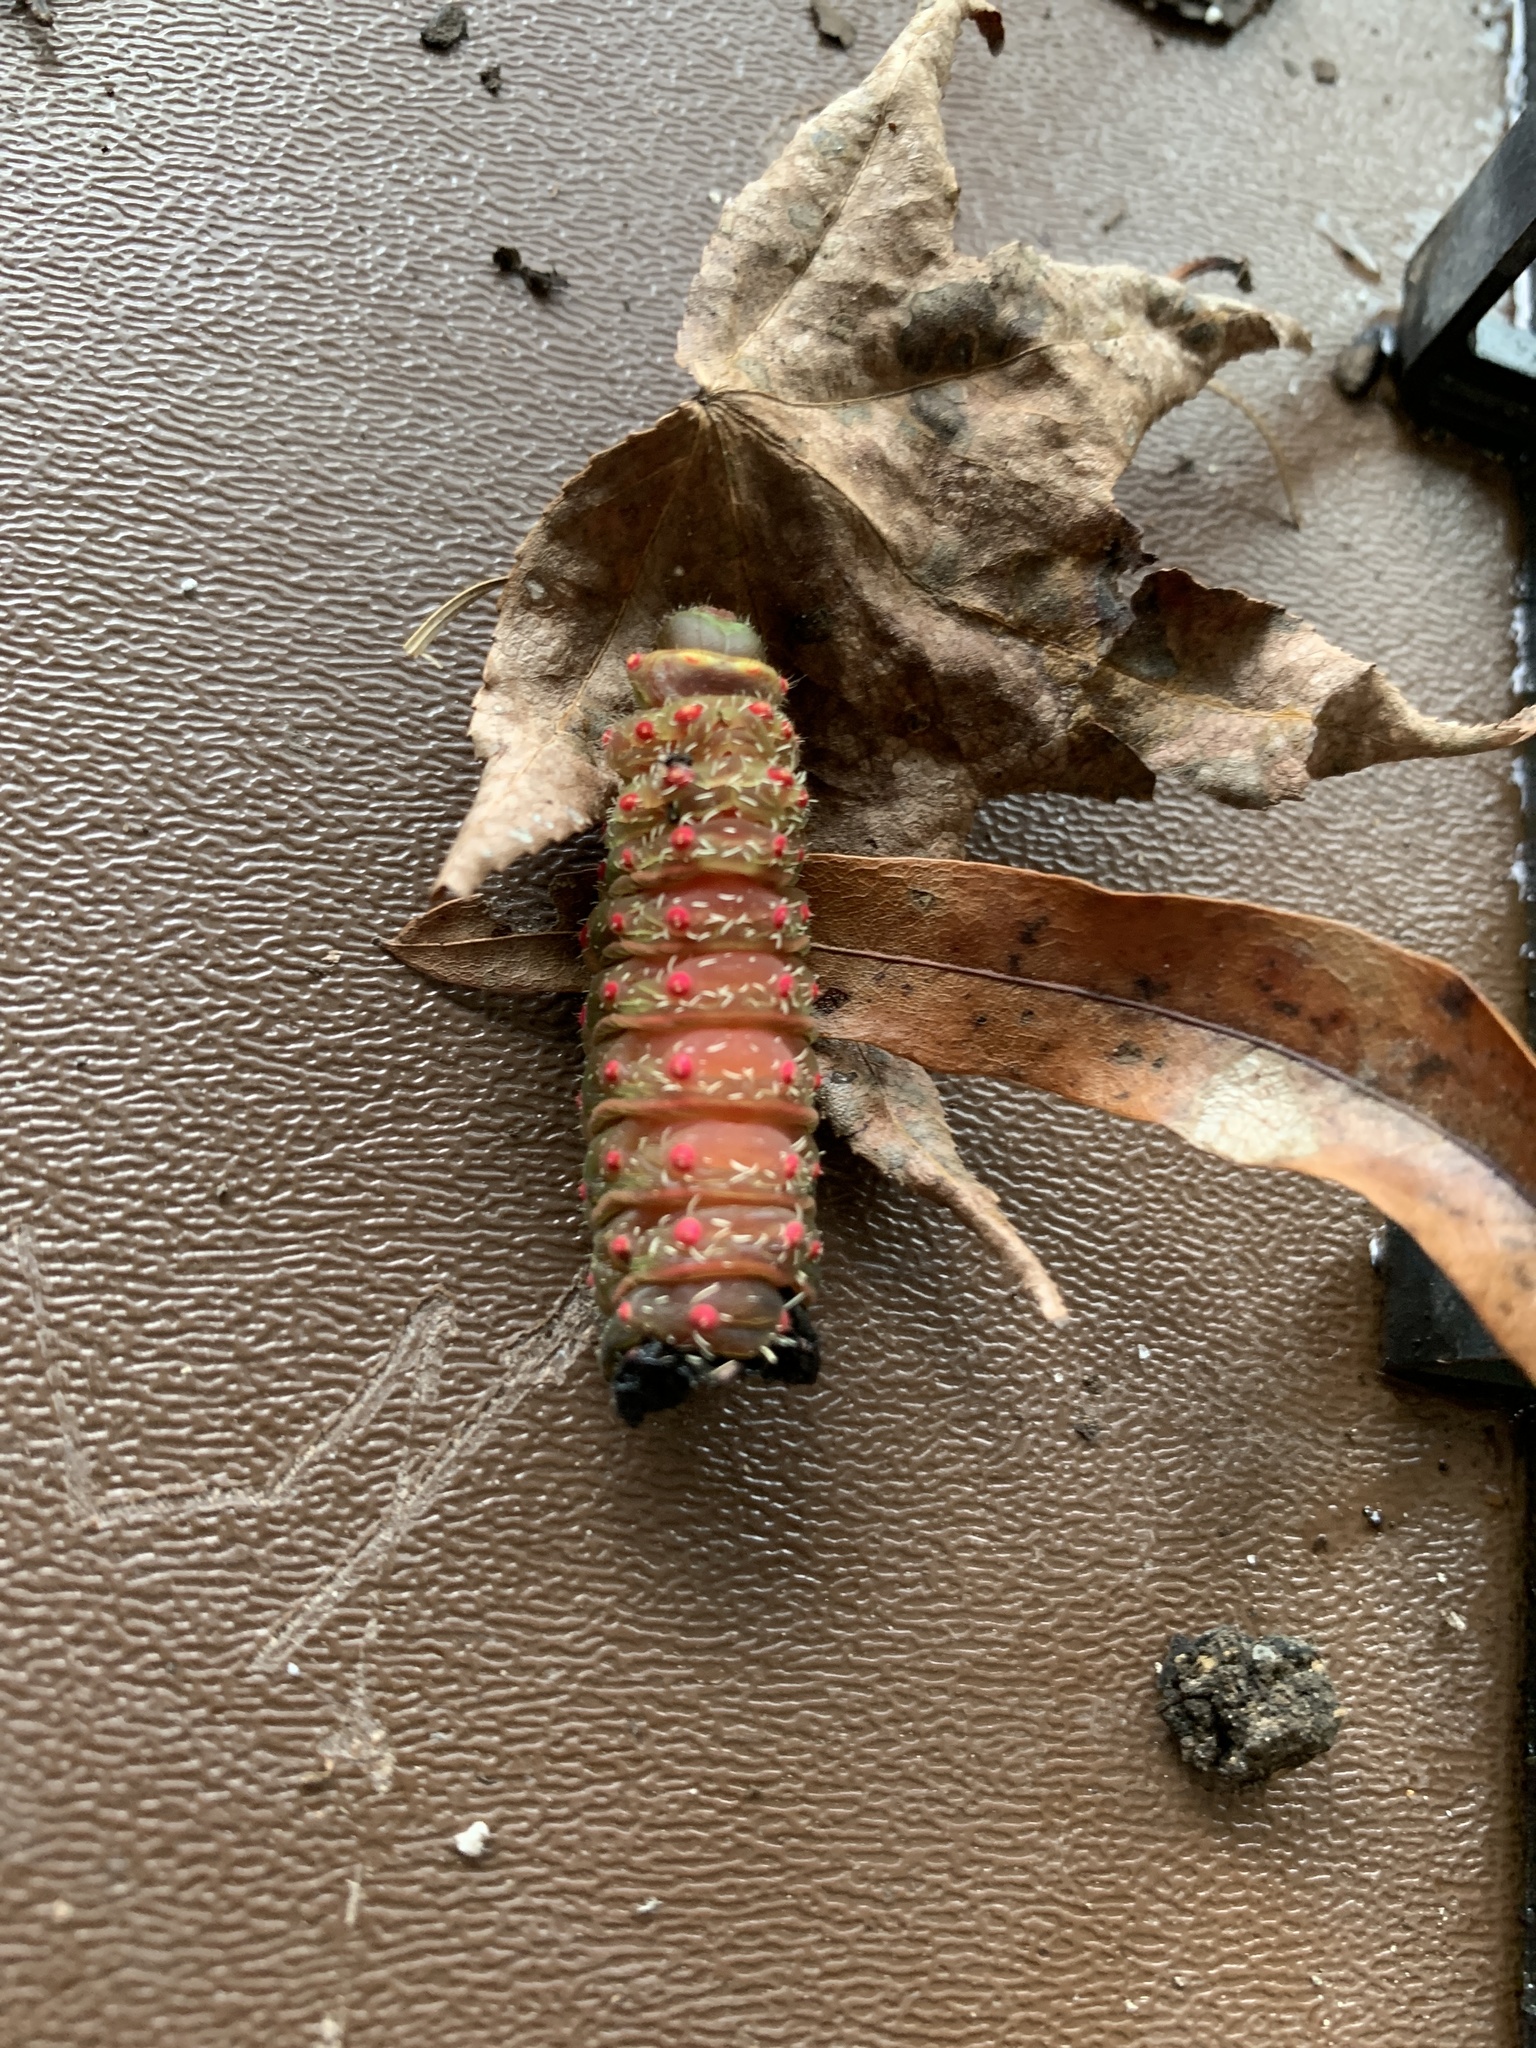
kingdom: Animalia
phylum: Arthropoda
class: Insecta
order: Lepidoptera
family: Saturniidae
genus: Actias
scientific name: Actias luna
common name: Luna moth
